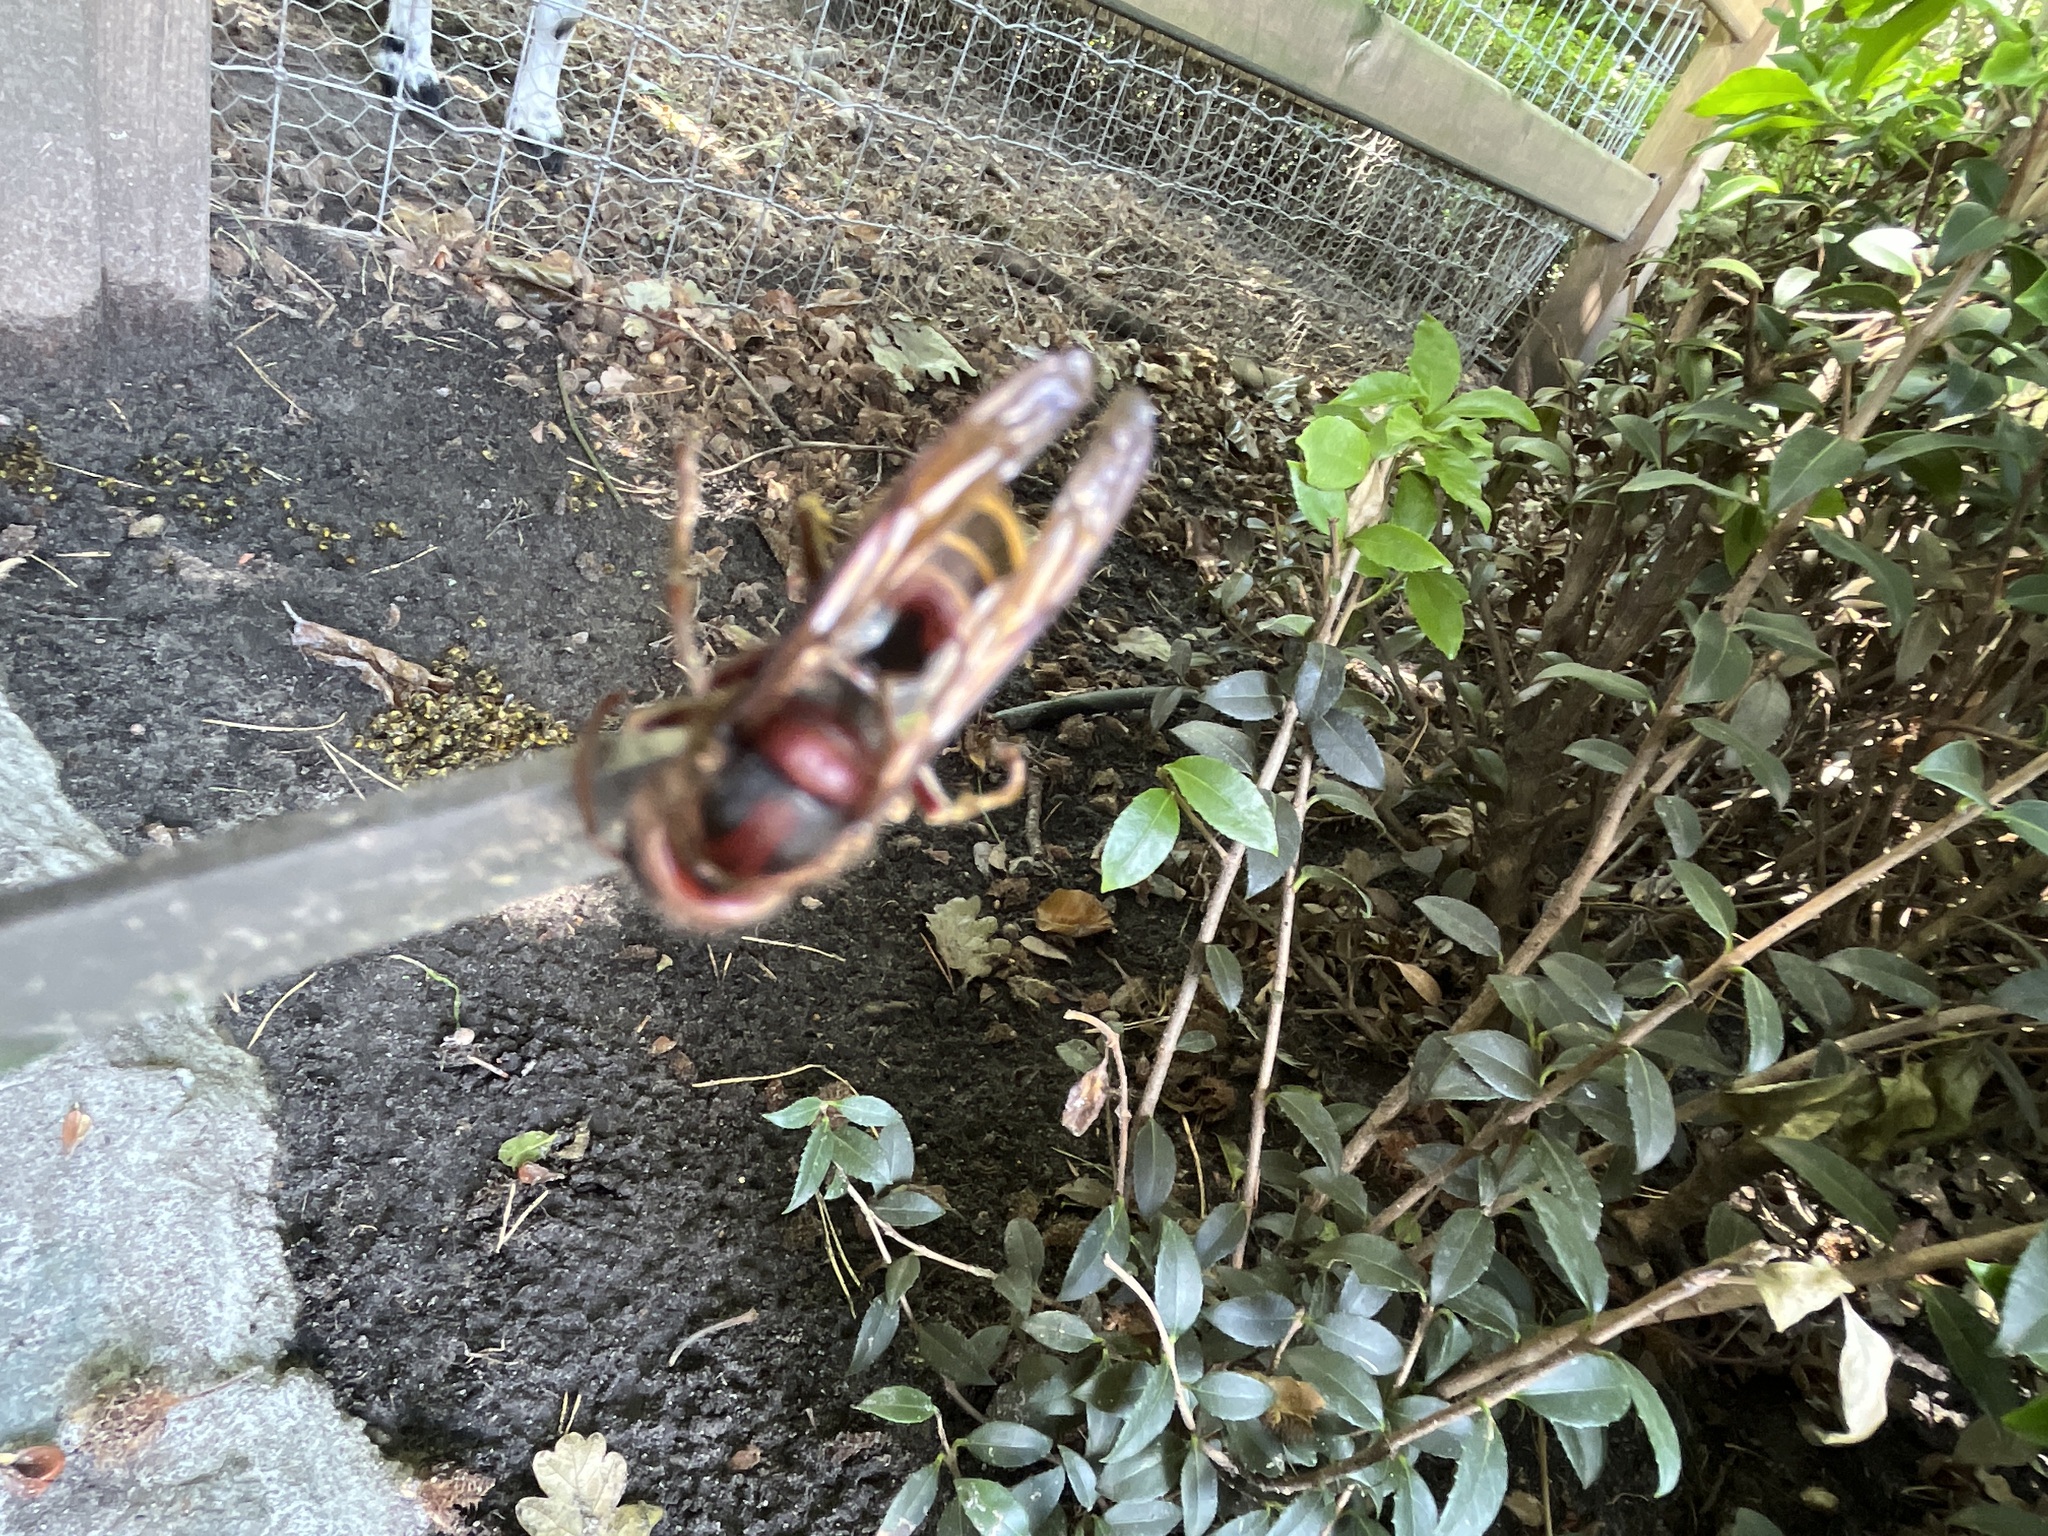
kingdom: Animalia
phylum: Arthropoda
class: Insecta
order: Hymenoptera
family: Vespidae
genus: Vespa
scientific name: Vespa crabro
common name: Hornet
